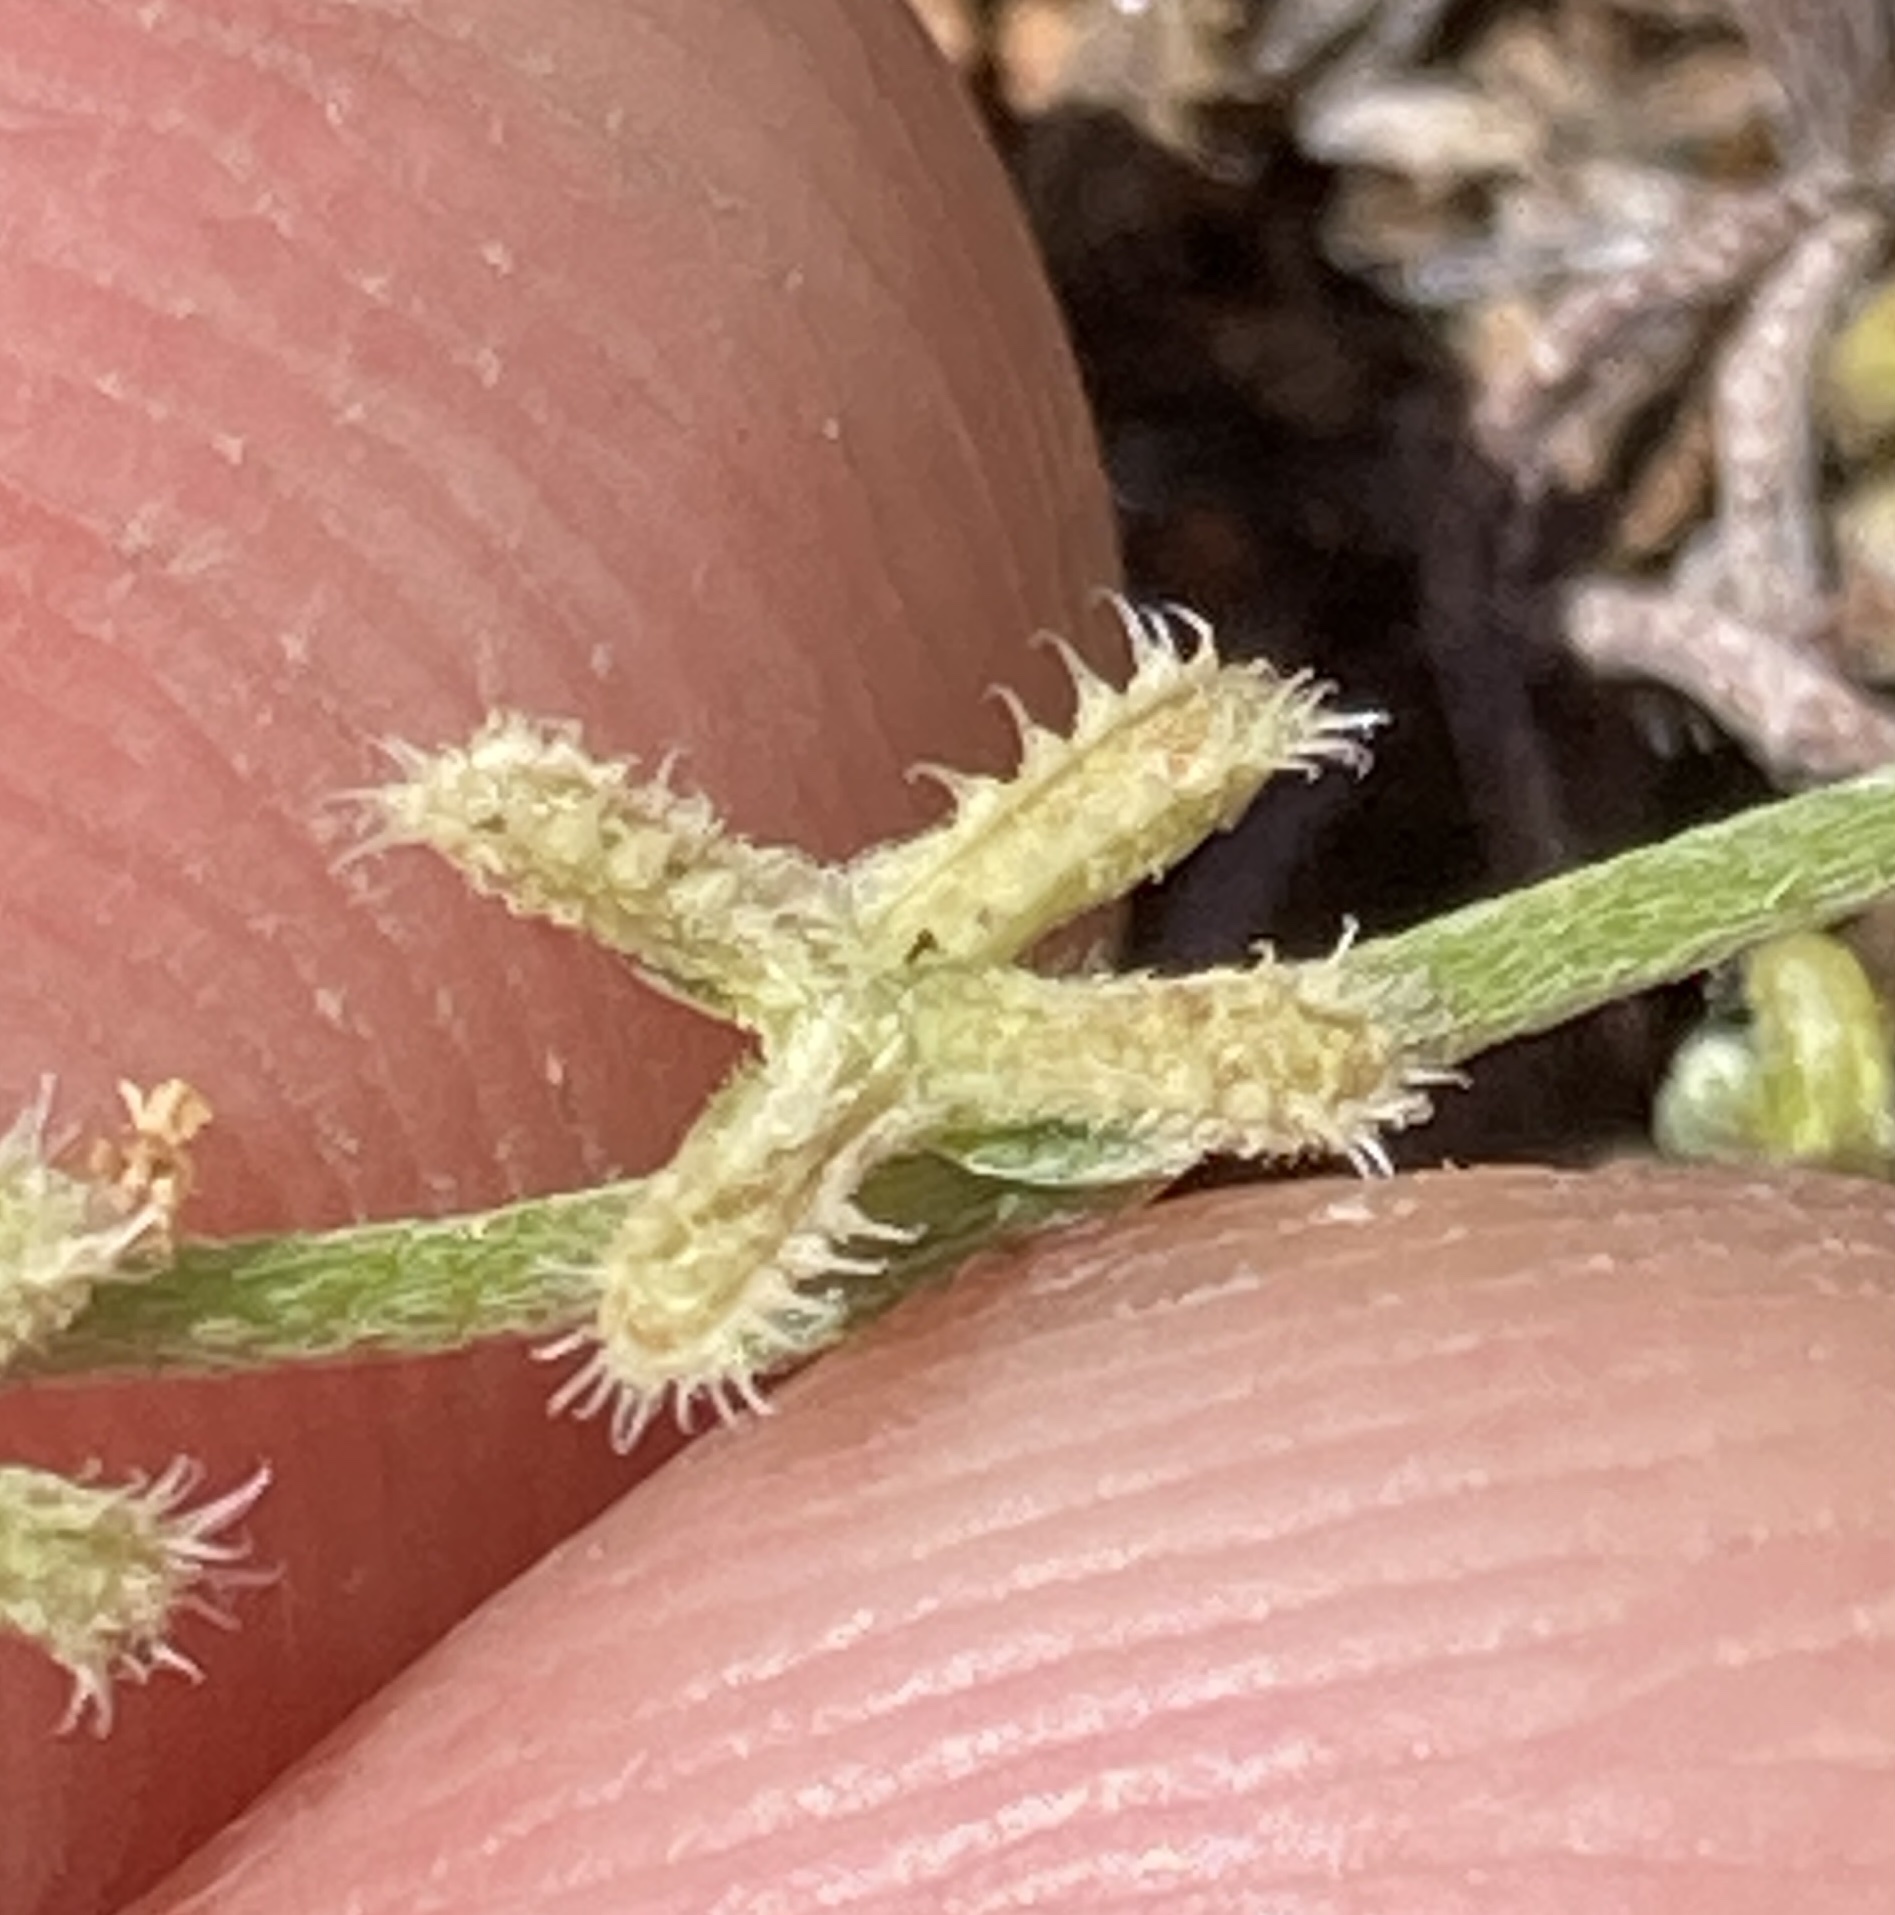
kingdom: Plantae
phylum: Tracheophyta
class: Magnoliopsida
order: Boraginales
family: Boraginaceae
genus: Pectocarya
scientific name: Pectocarya linearis
